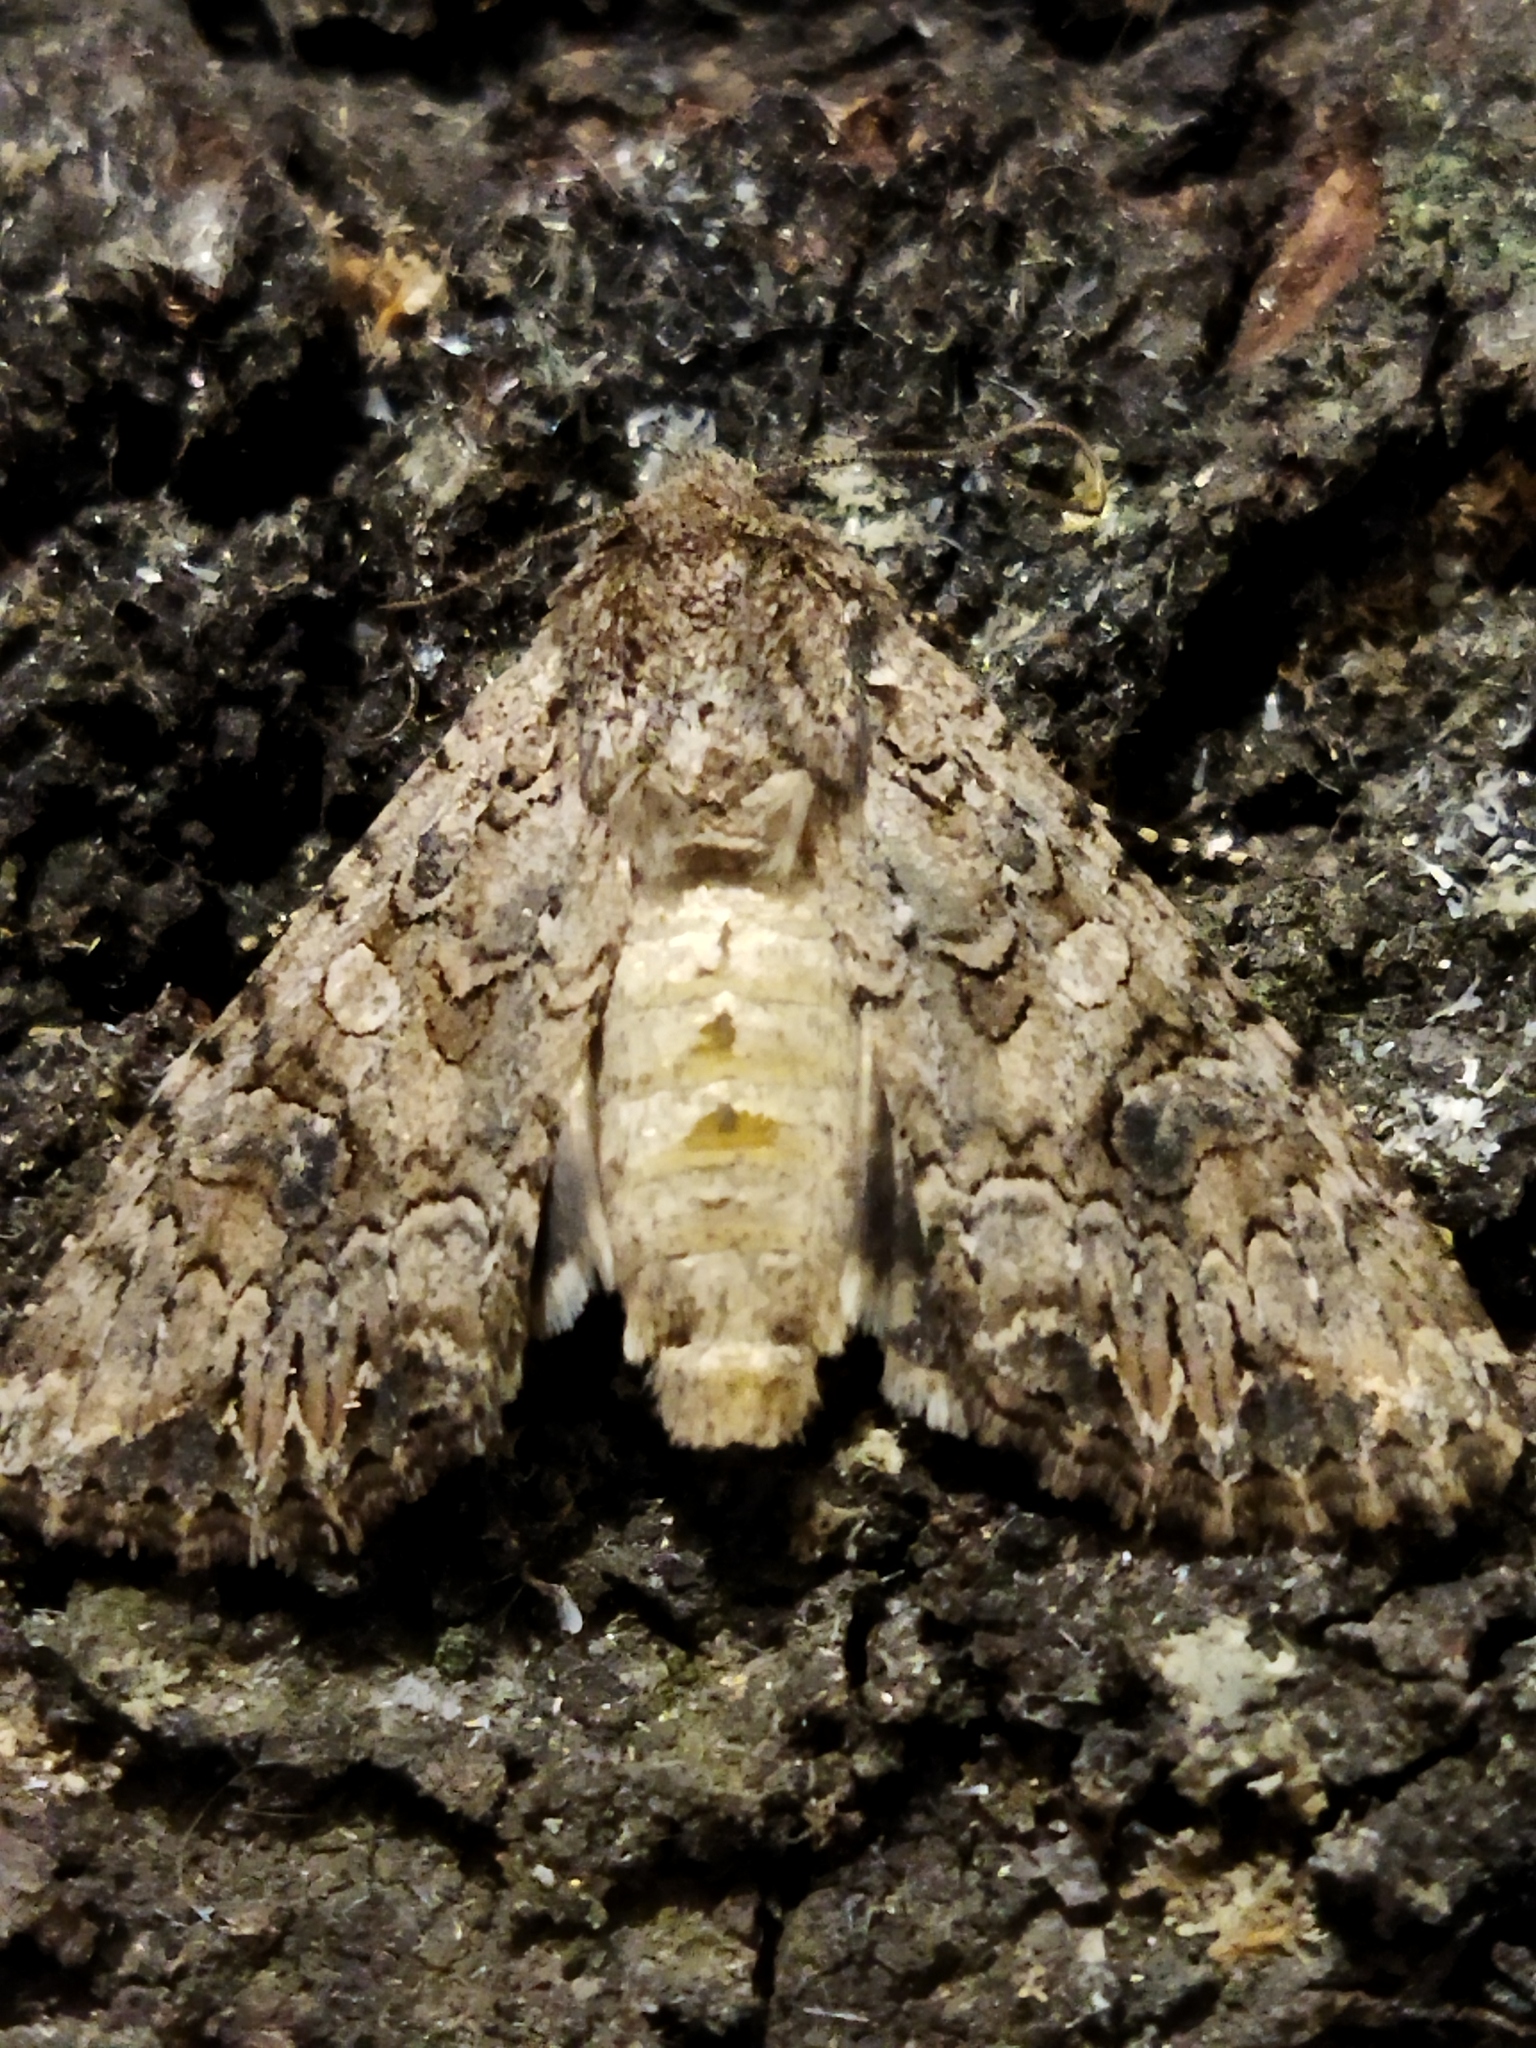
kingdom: Animalia
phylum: Arthropoda
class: Insecta
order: Lepidoptera
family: Noctuidae
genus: Anarta
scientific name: Anarta trifolii
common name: Clover cutworm moth
